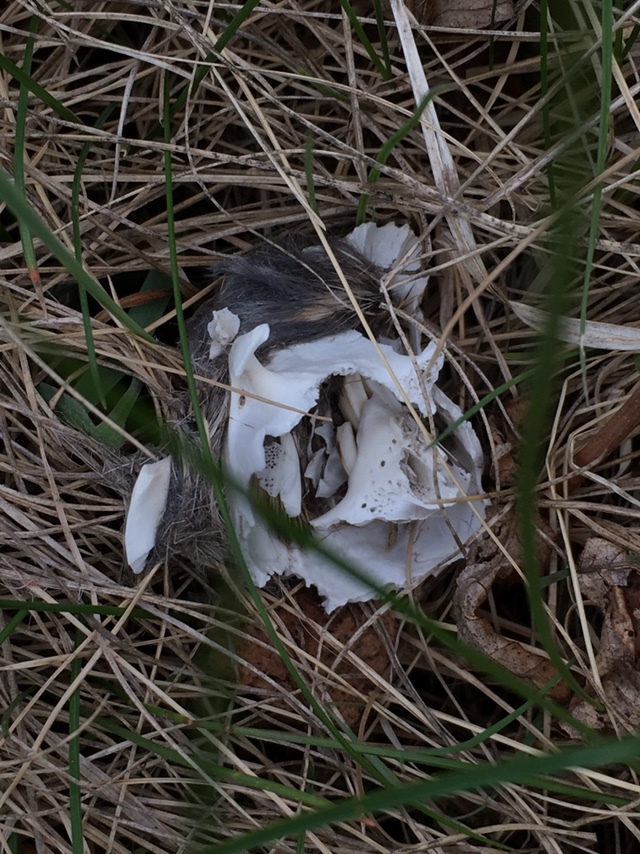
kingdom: Animalia
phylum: Chordata
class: Mammalia
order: Lagomorpha
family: Leporidae
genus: Sylvilagus
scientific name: Sylvilagus floridanus
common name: Eastern cottontail
